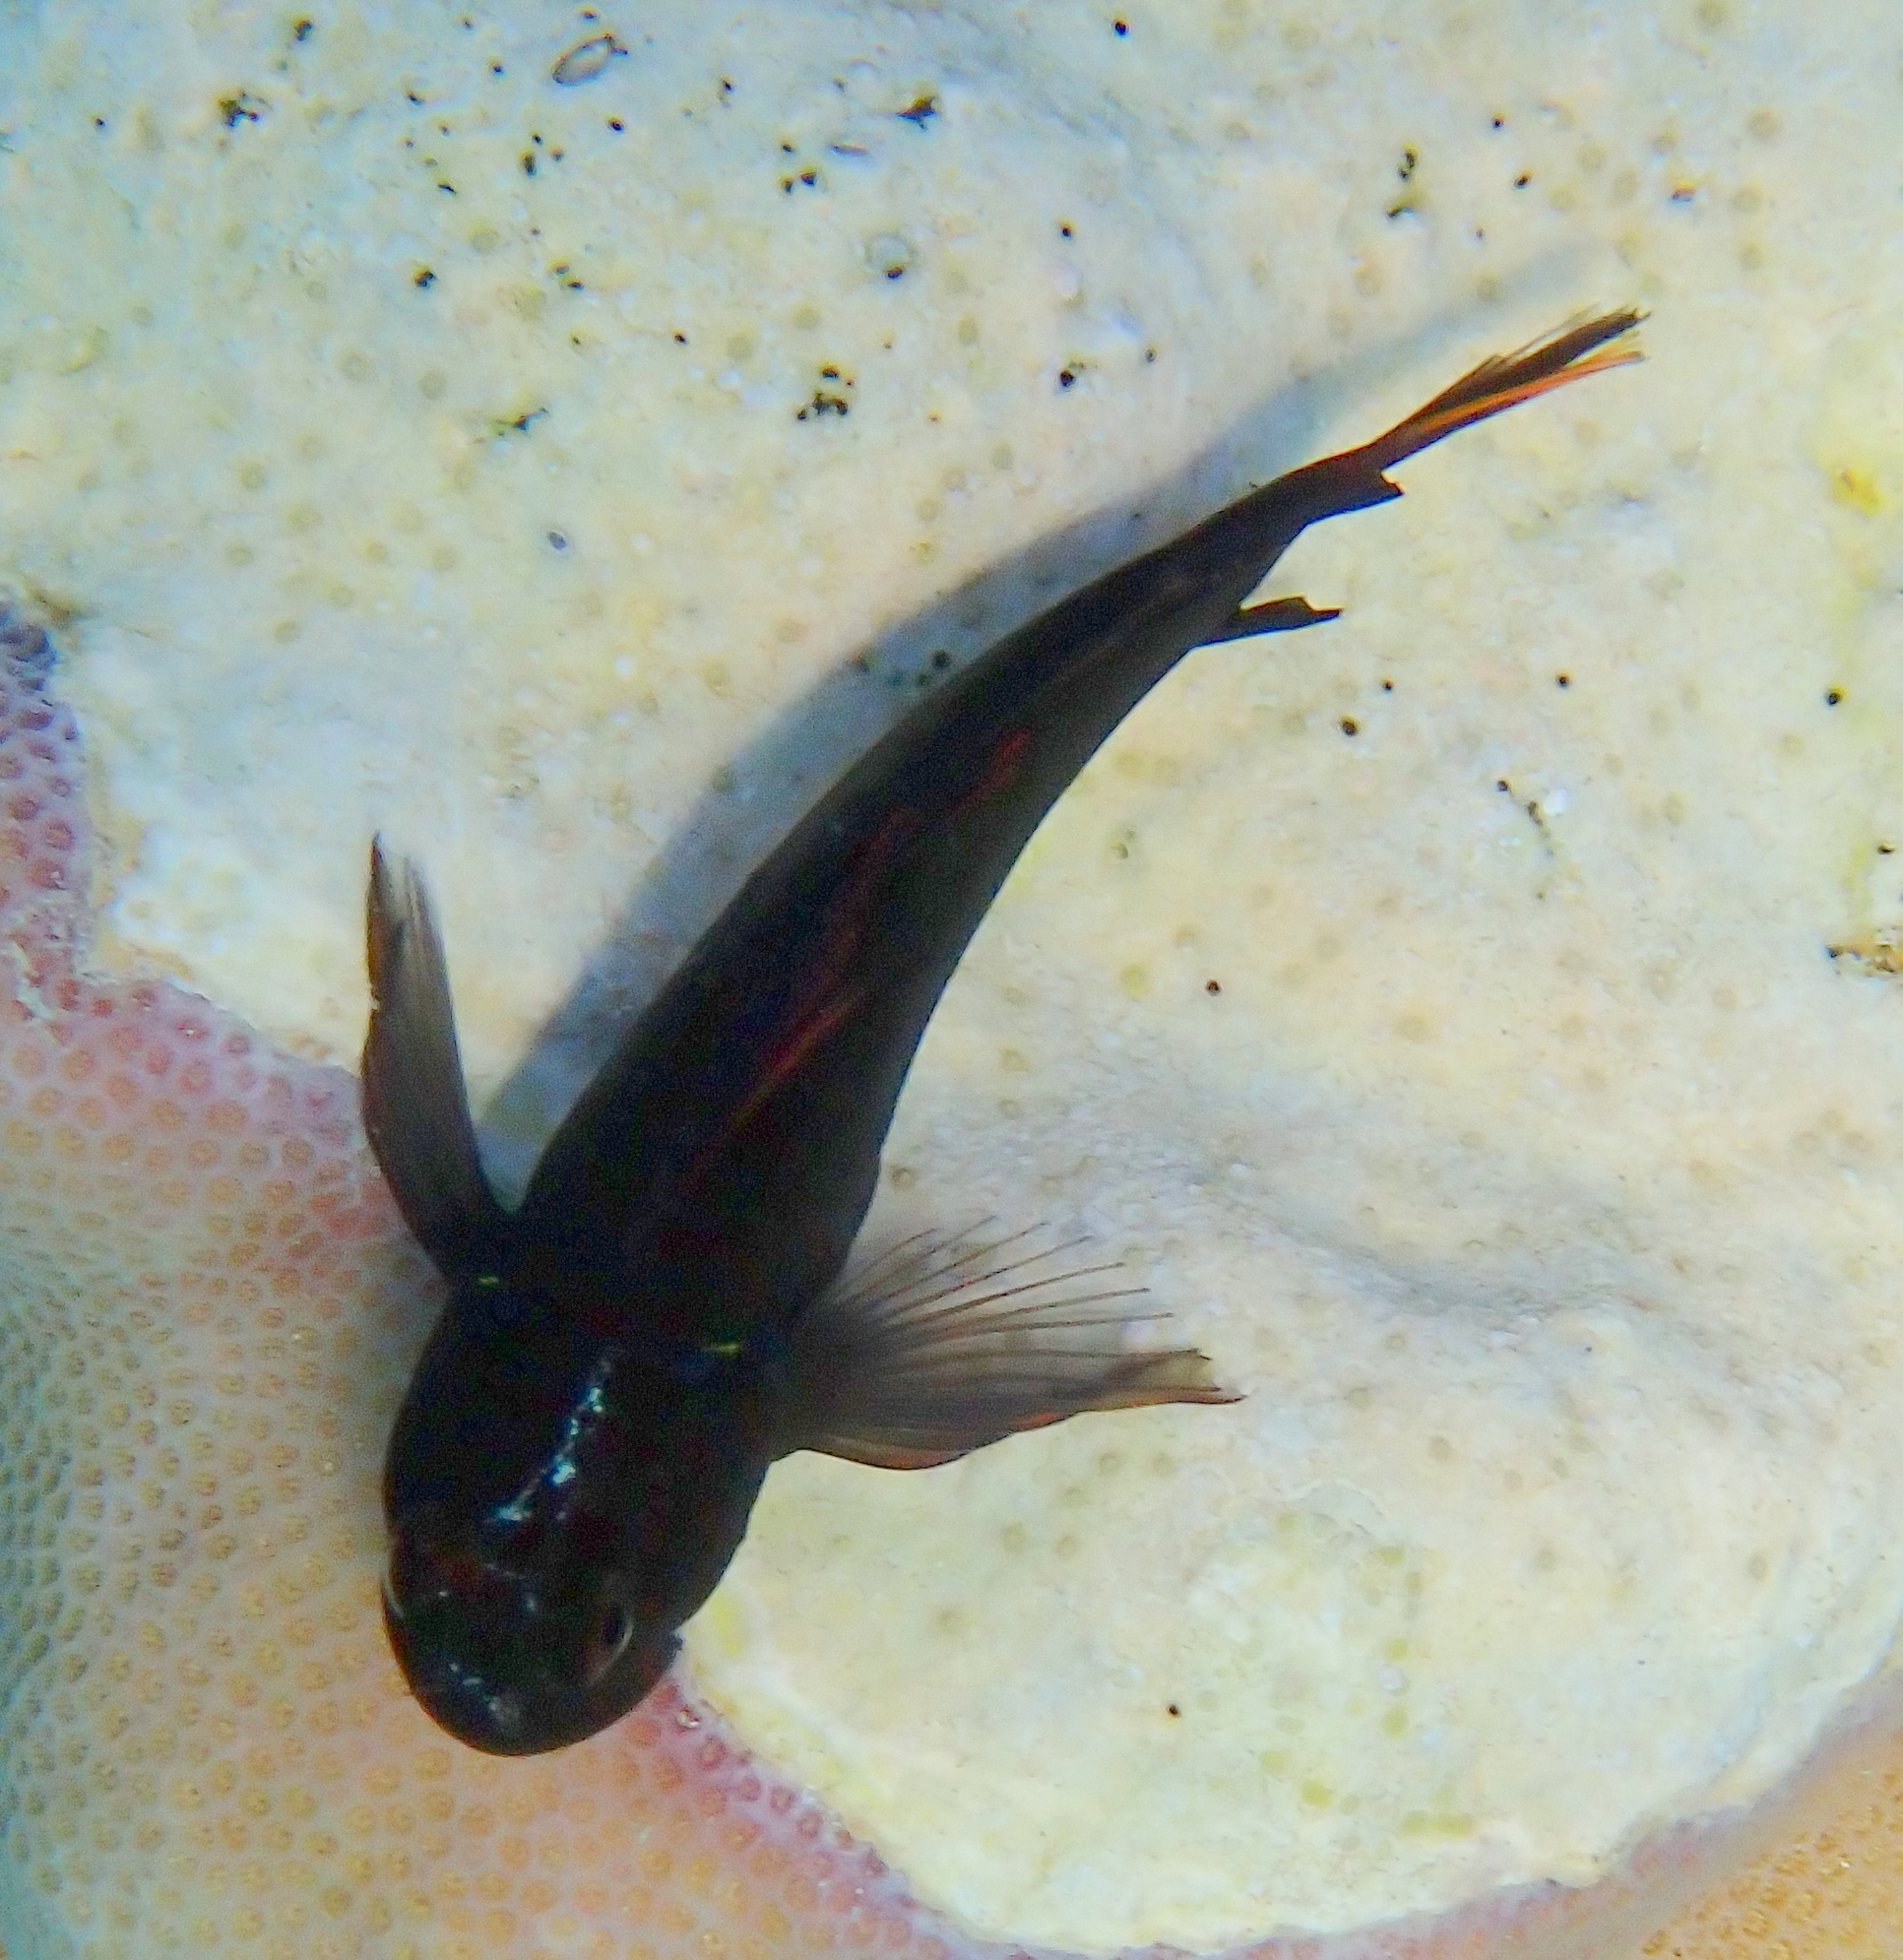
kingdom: Animalia
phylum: Chordata
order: Perciformes
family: Blenniidae
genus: Cirripectes
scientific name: Cirripectes castaneus
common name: Chestnut blenny
